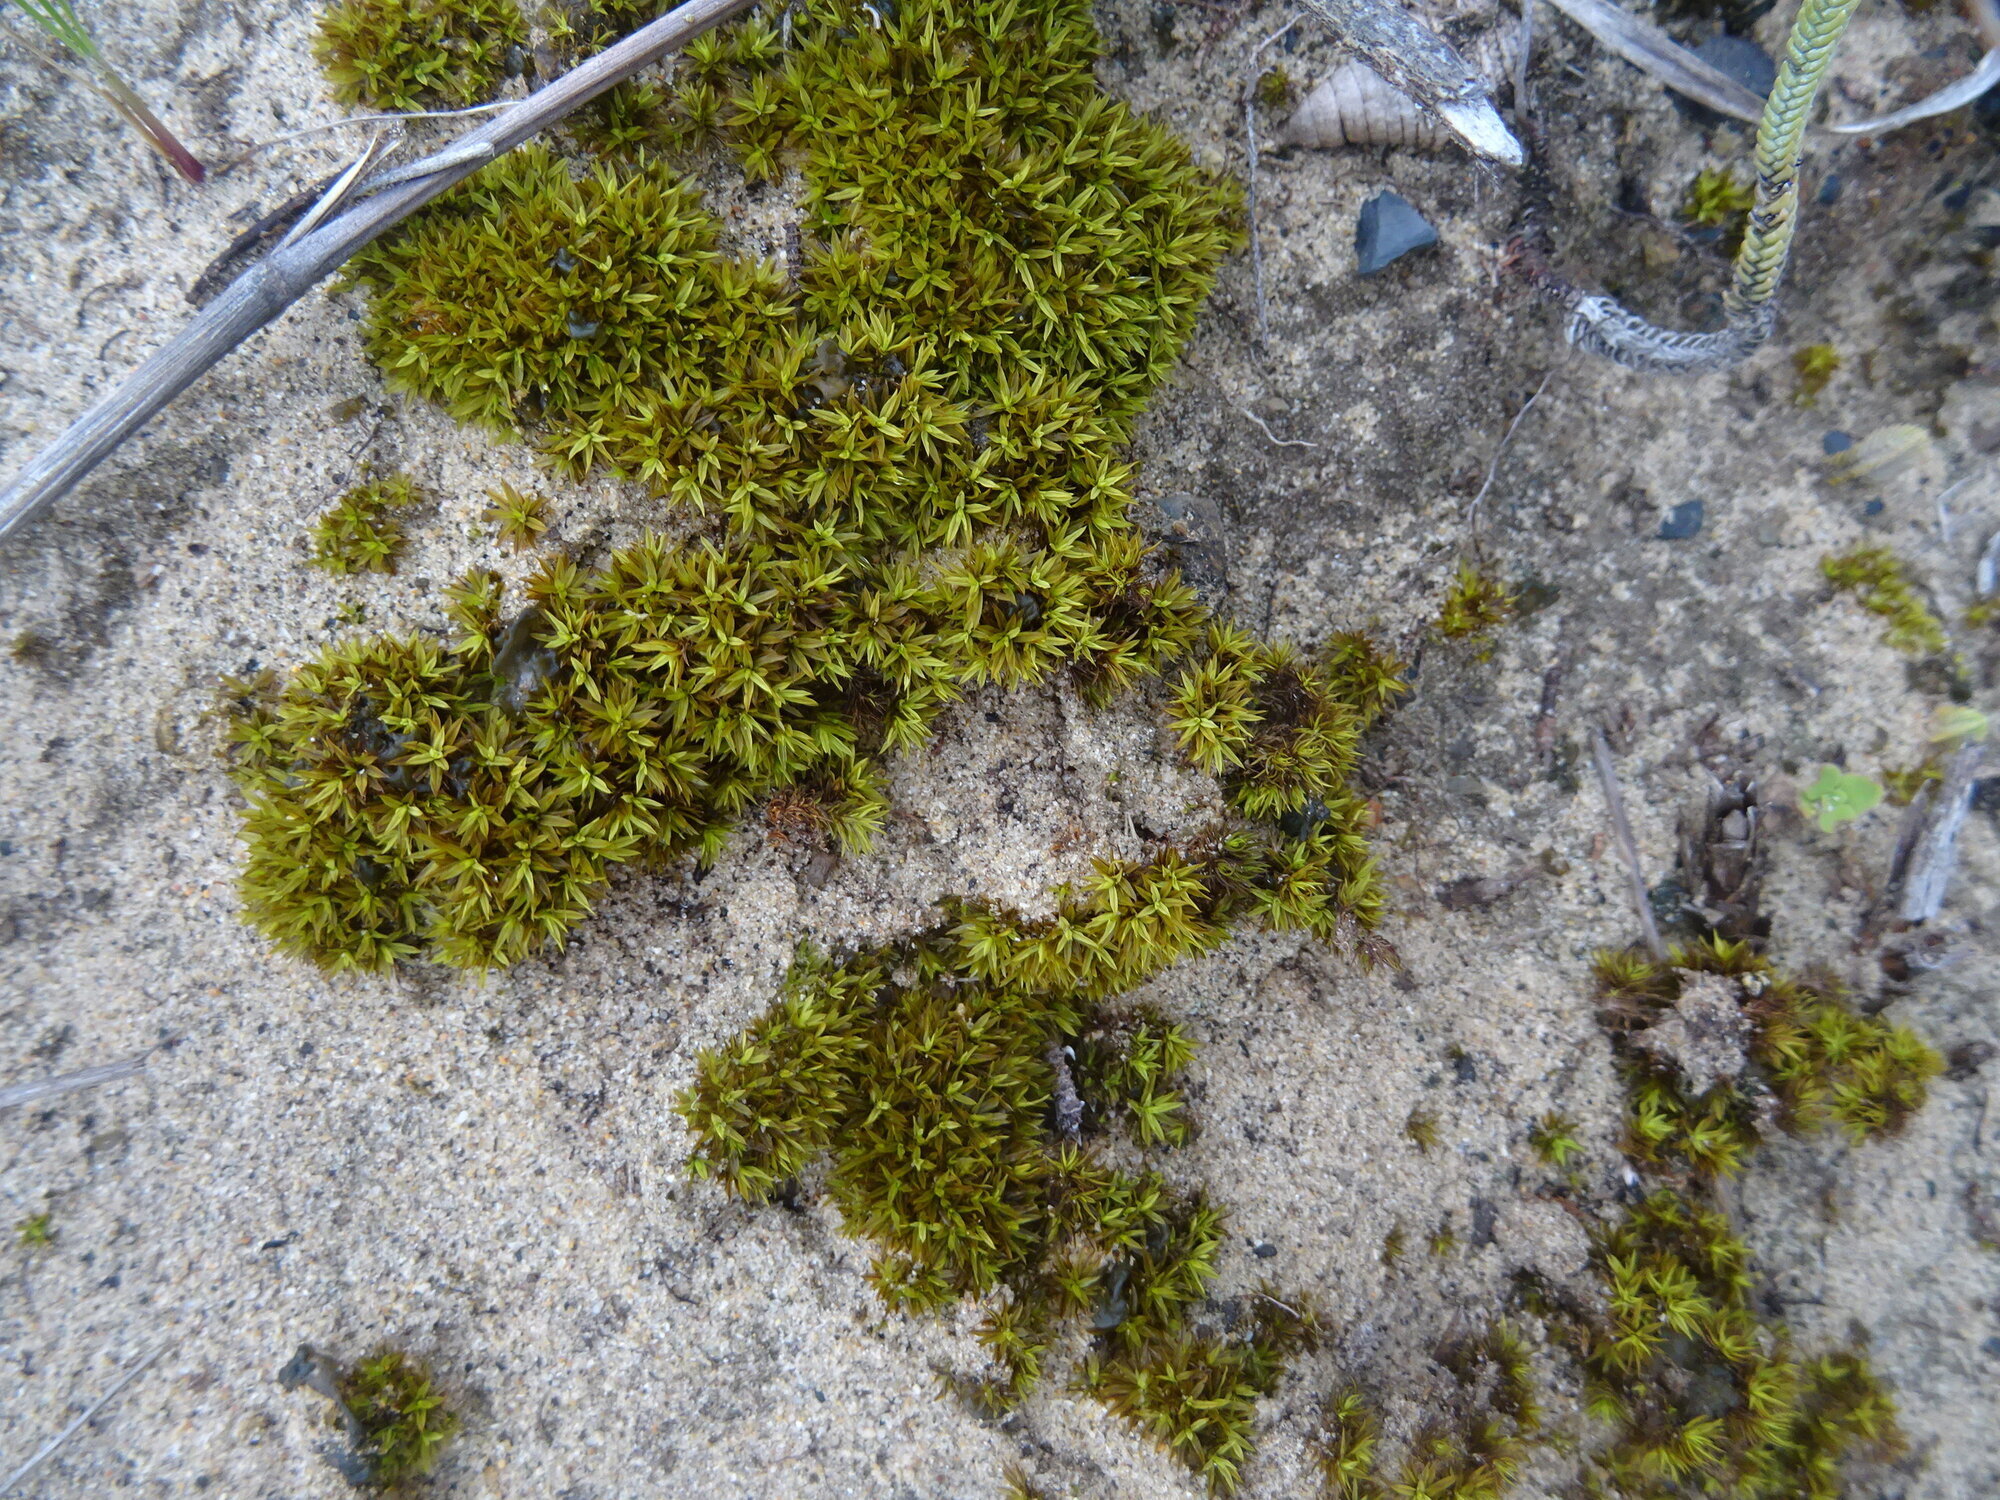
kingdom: Plantae
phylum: Bryophyta
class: Bryopsida
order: Pottiales
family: Pottiaceae
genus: Trichostomum
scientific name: Trichostomum brachydontium
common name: Variable crisp-moss
